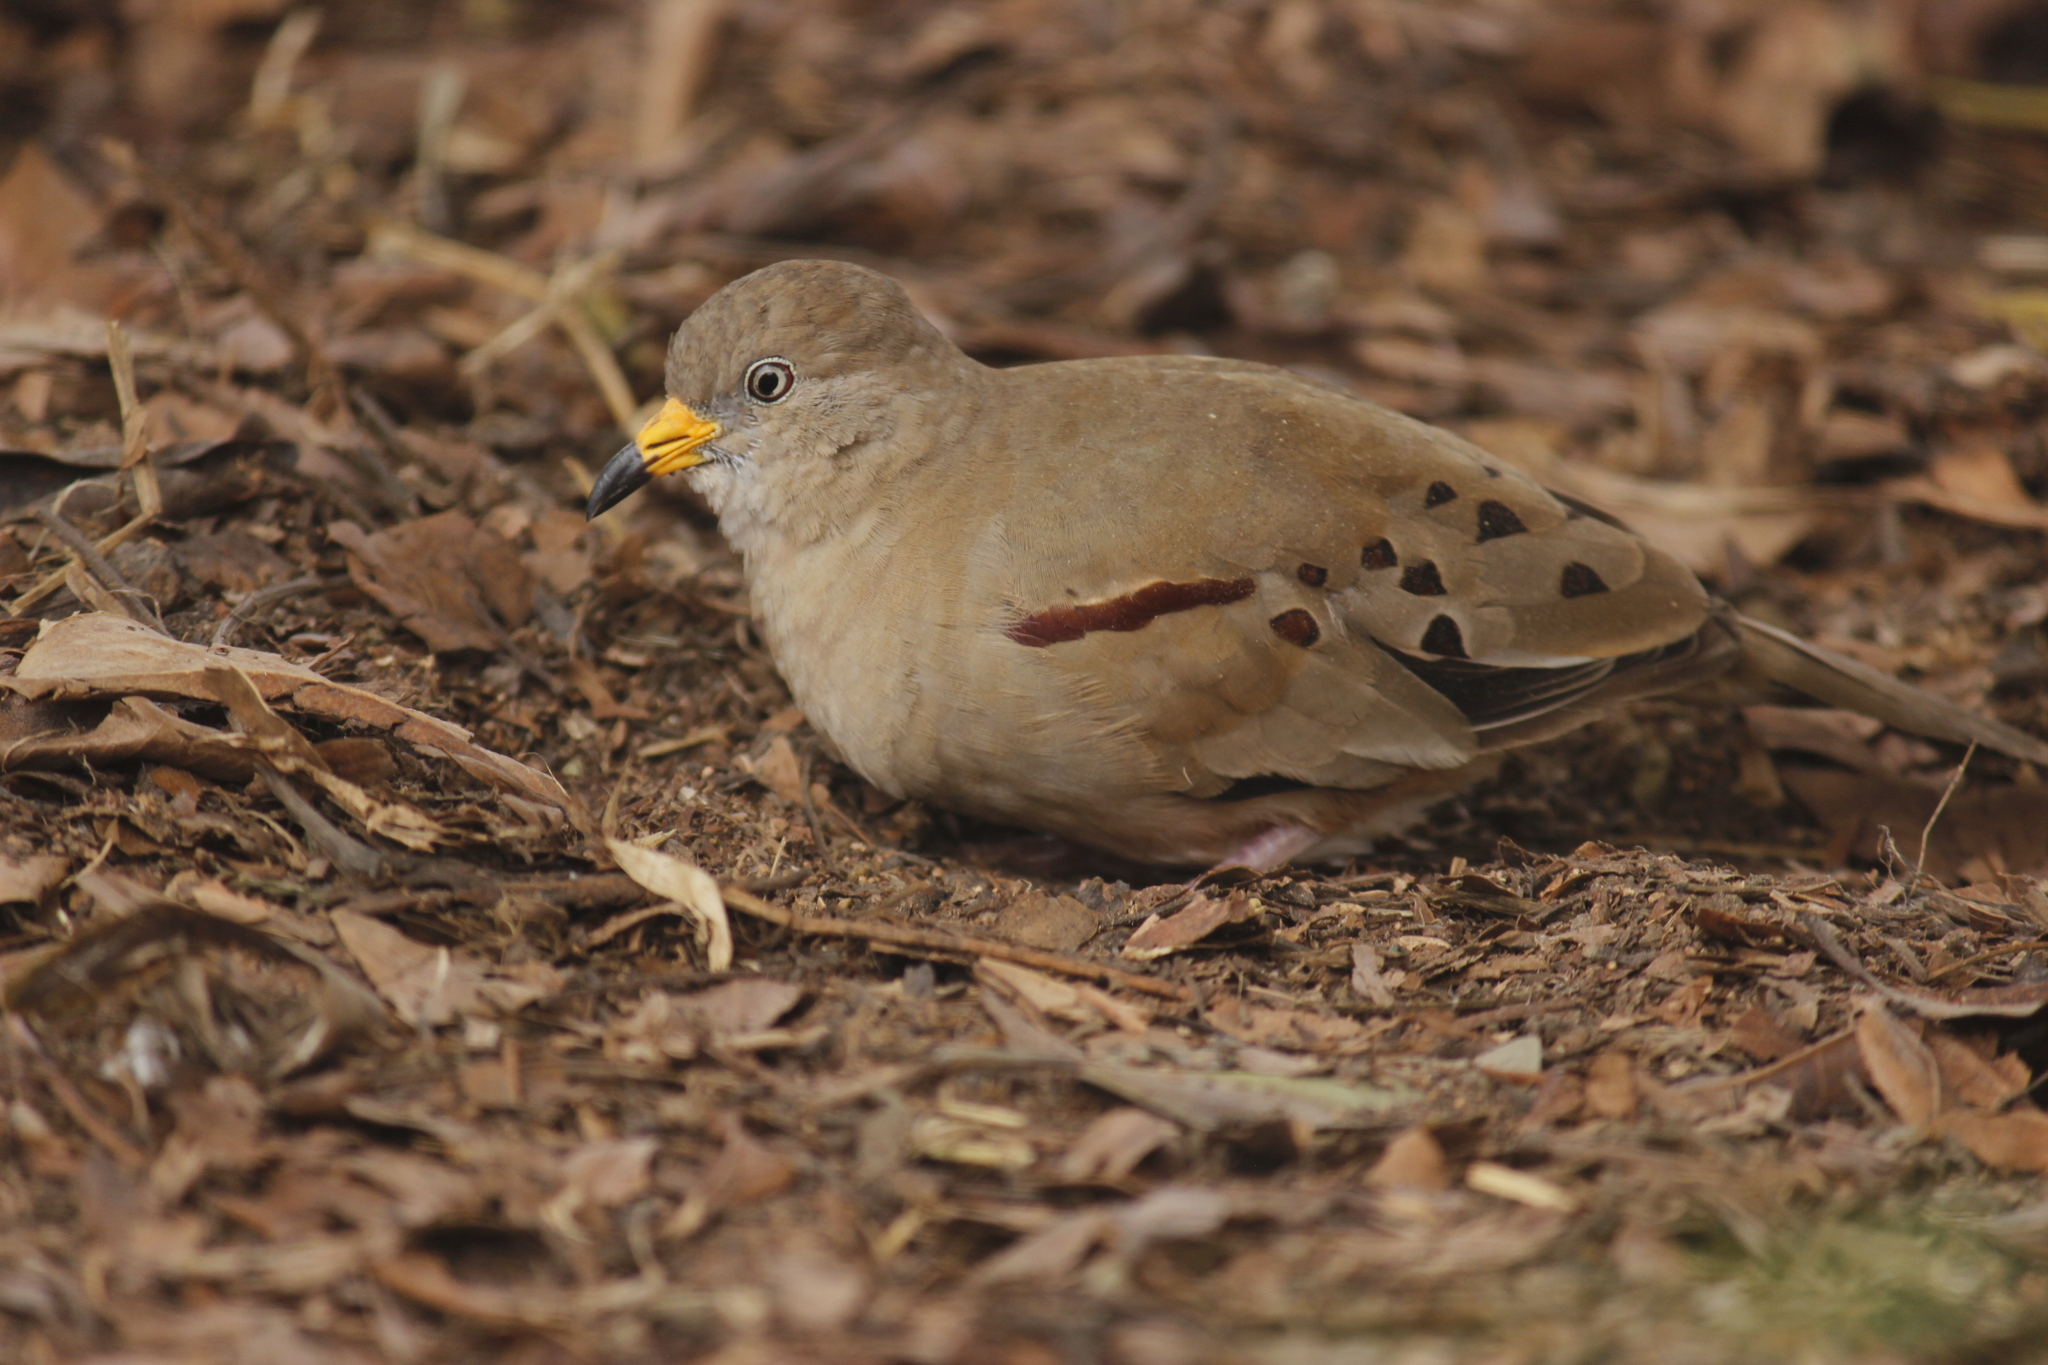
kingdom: Animalia
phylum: Chordata
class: Aves
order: Columbiformes
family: Columbidae
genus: Columbina
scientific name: Columbina cruziana
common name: Croaking ground dove
